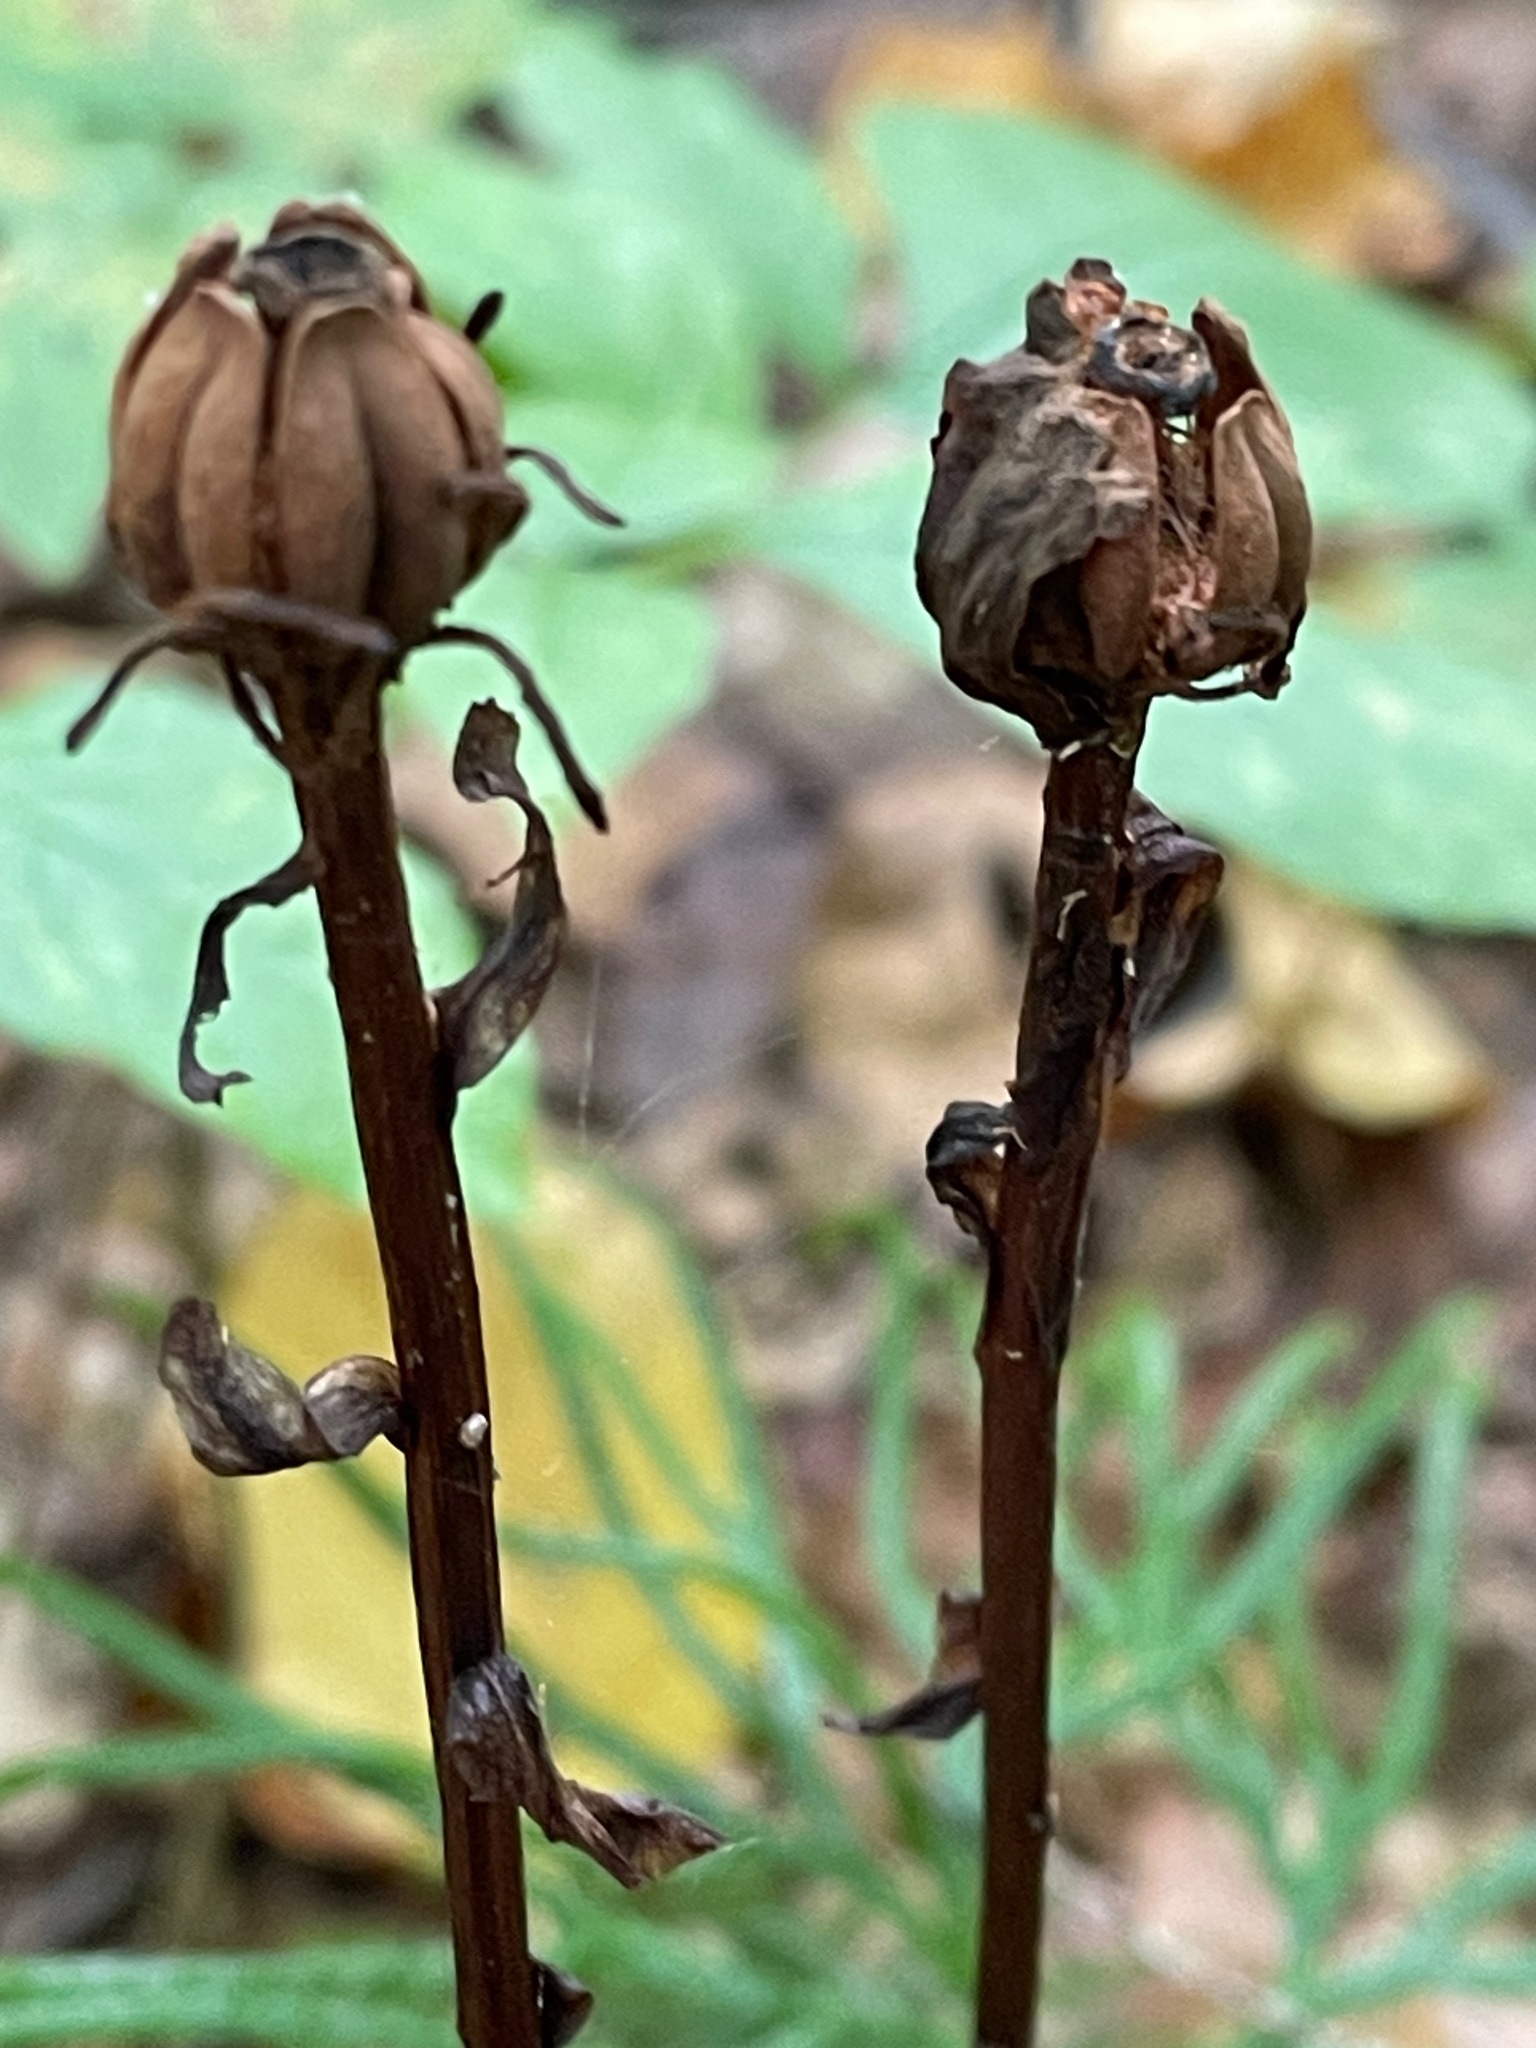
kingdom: Plantae
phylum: Tracheophyta
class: Magnoliopsida
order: Ericales
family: Ericaceae
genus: Monotropa
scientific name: Monotropa uniflora
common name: Convulsion root
